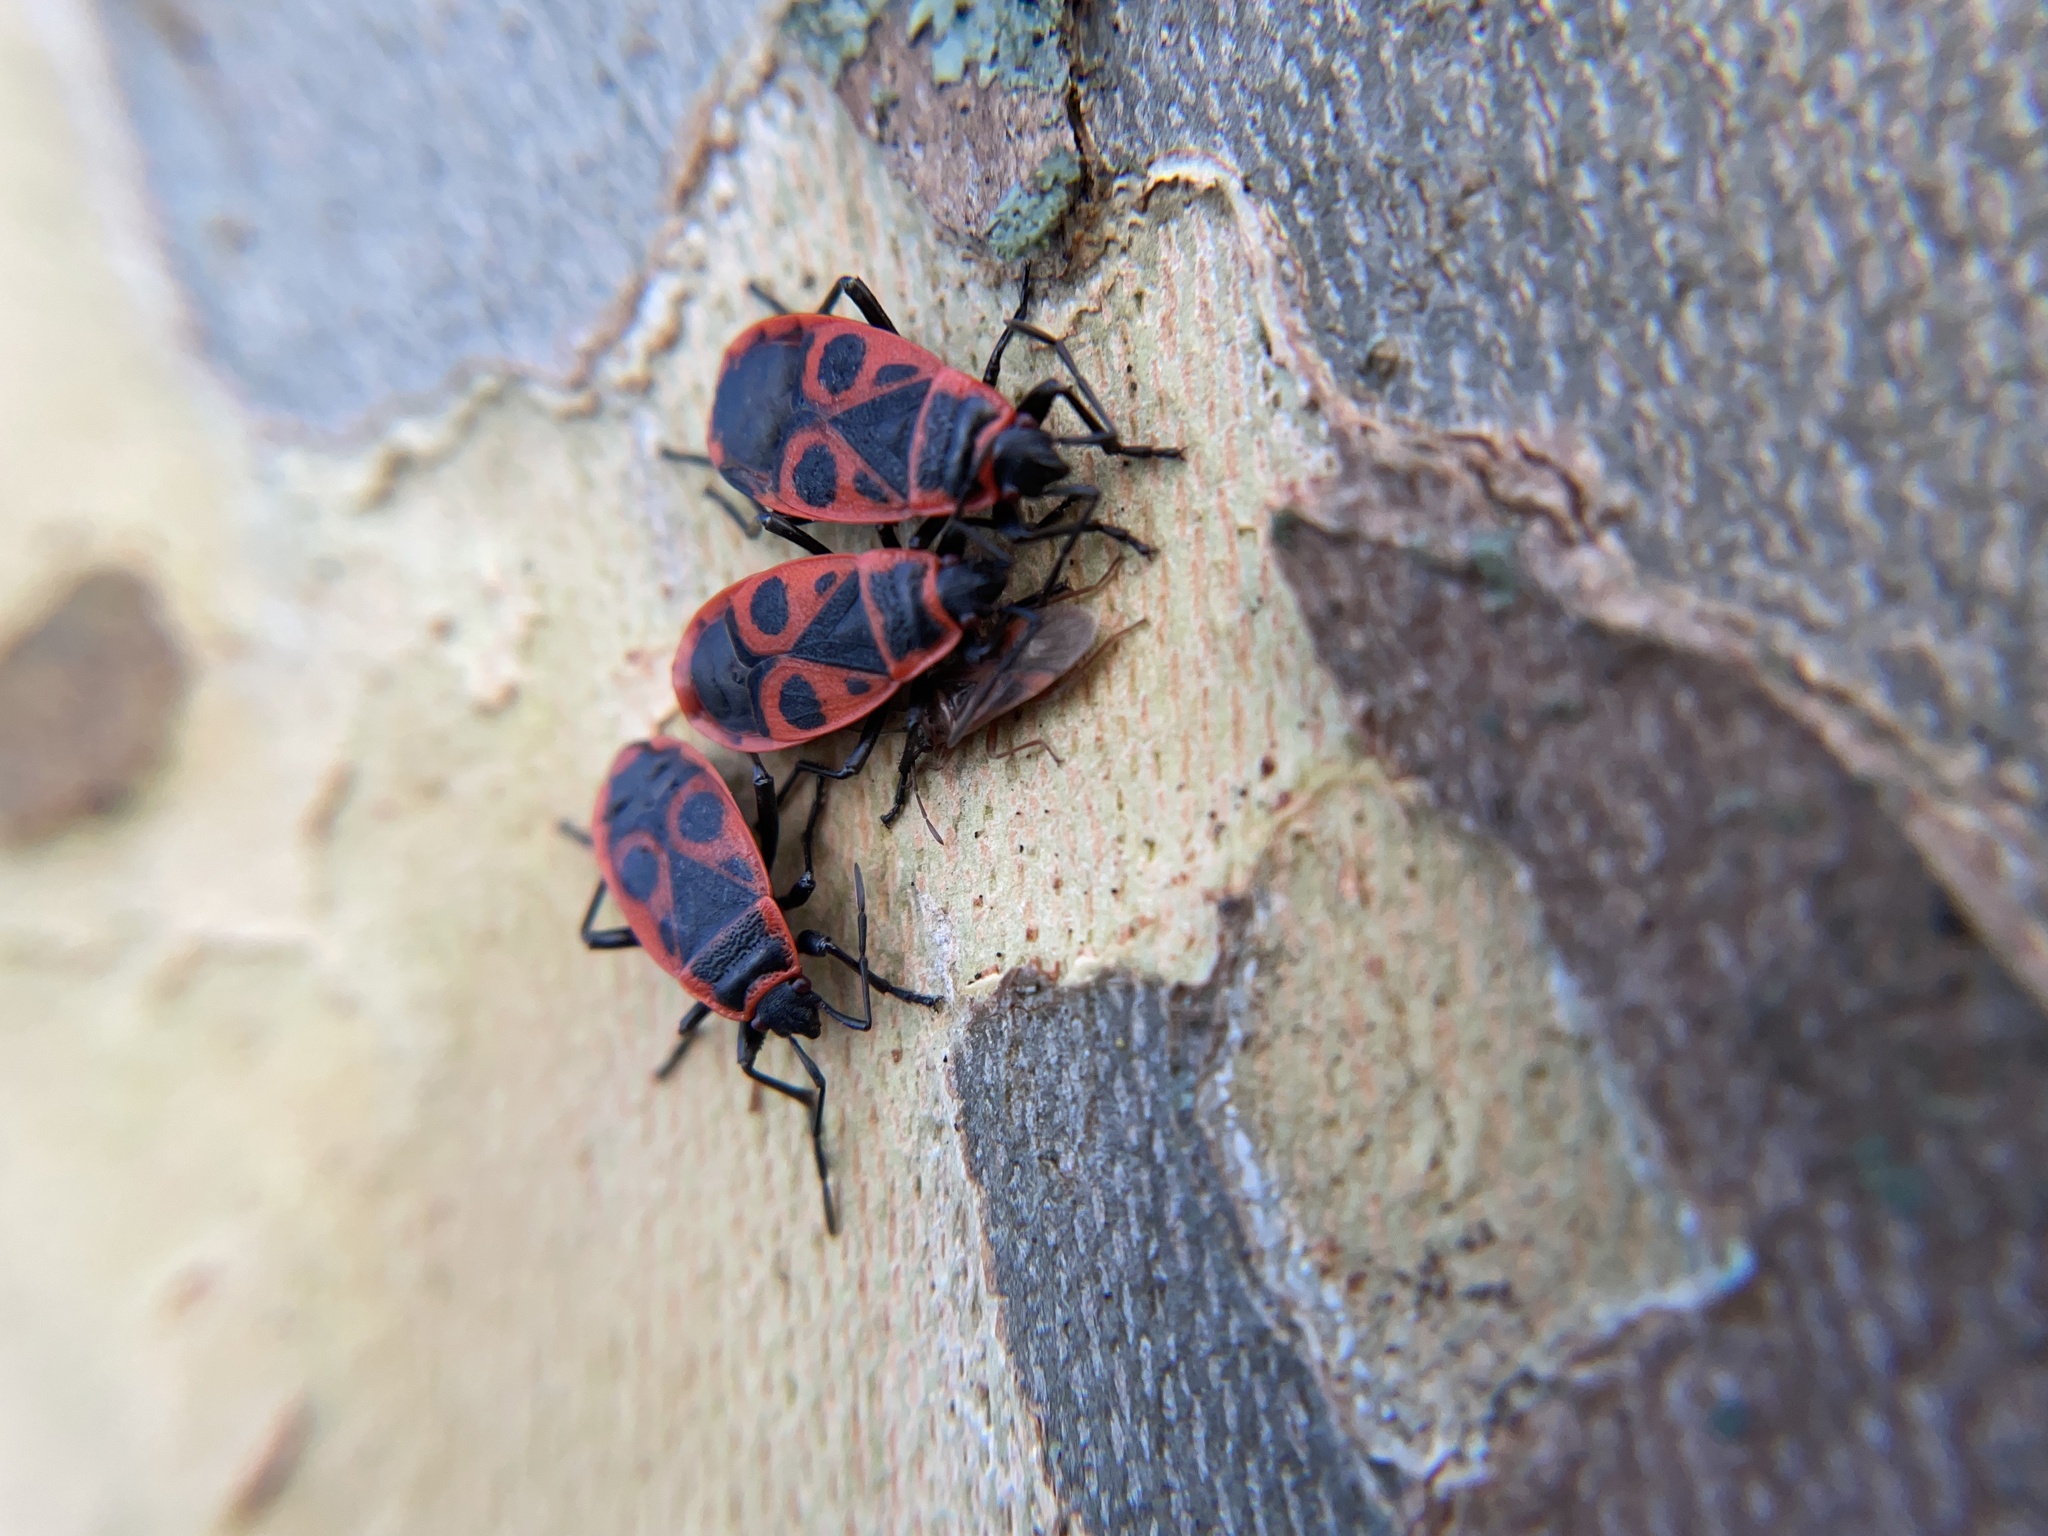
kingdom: Animalia
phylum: Arthropoda
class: Insecta
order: Hemiptera
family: Pyrrhocoridae
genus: Pyrrhocoris
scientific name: Pyrrhocoris apterus
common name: Firebug
